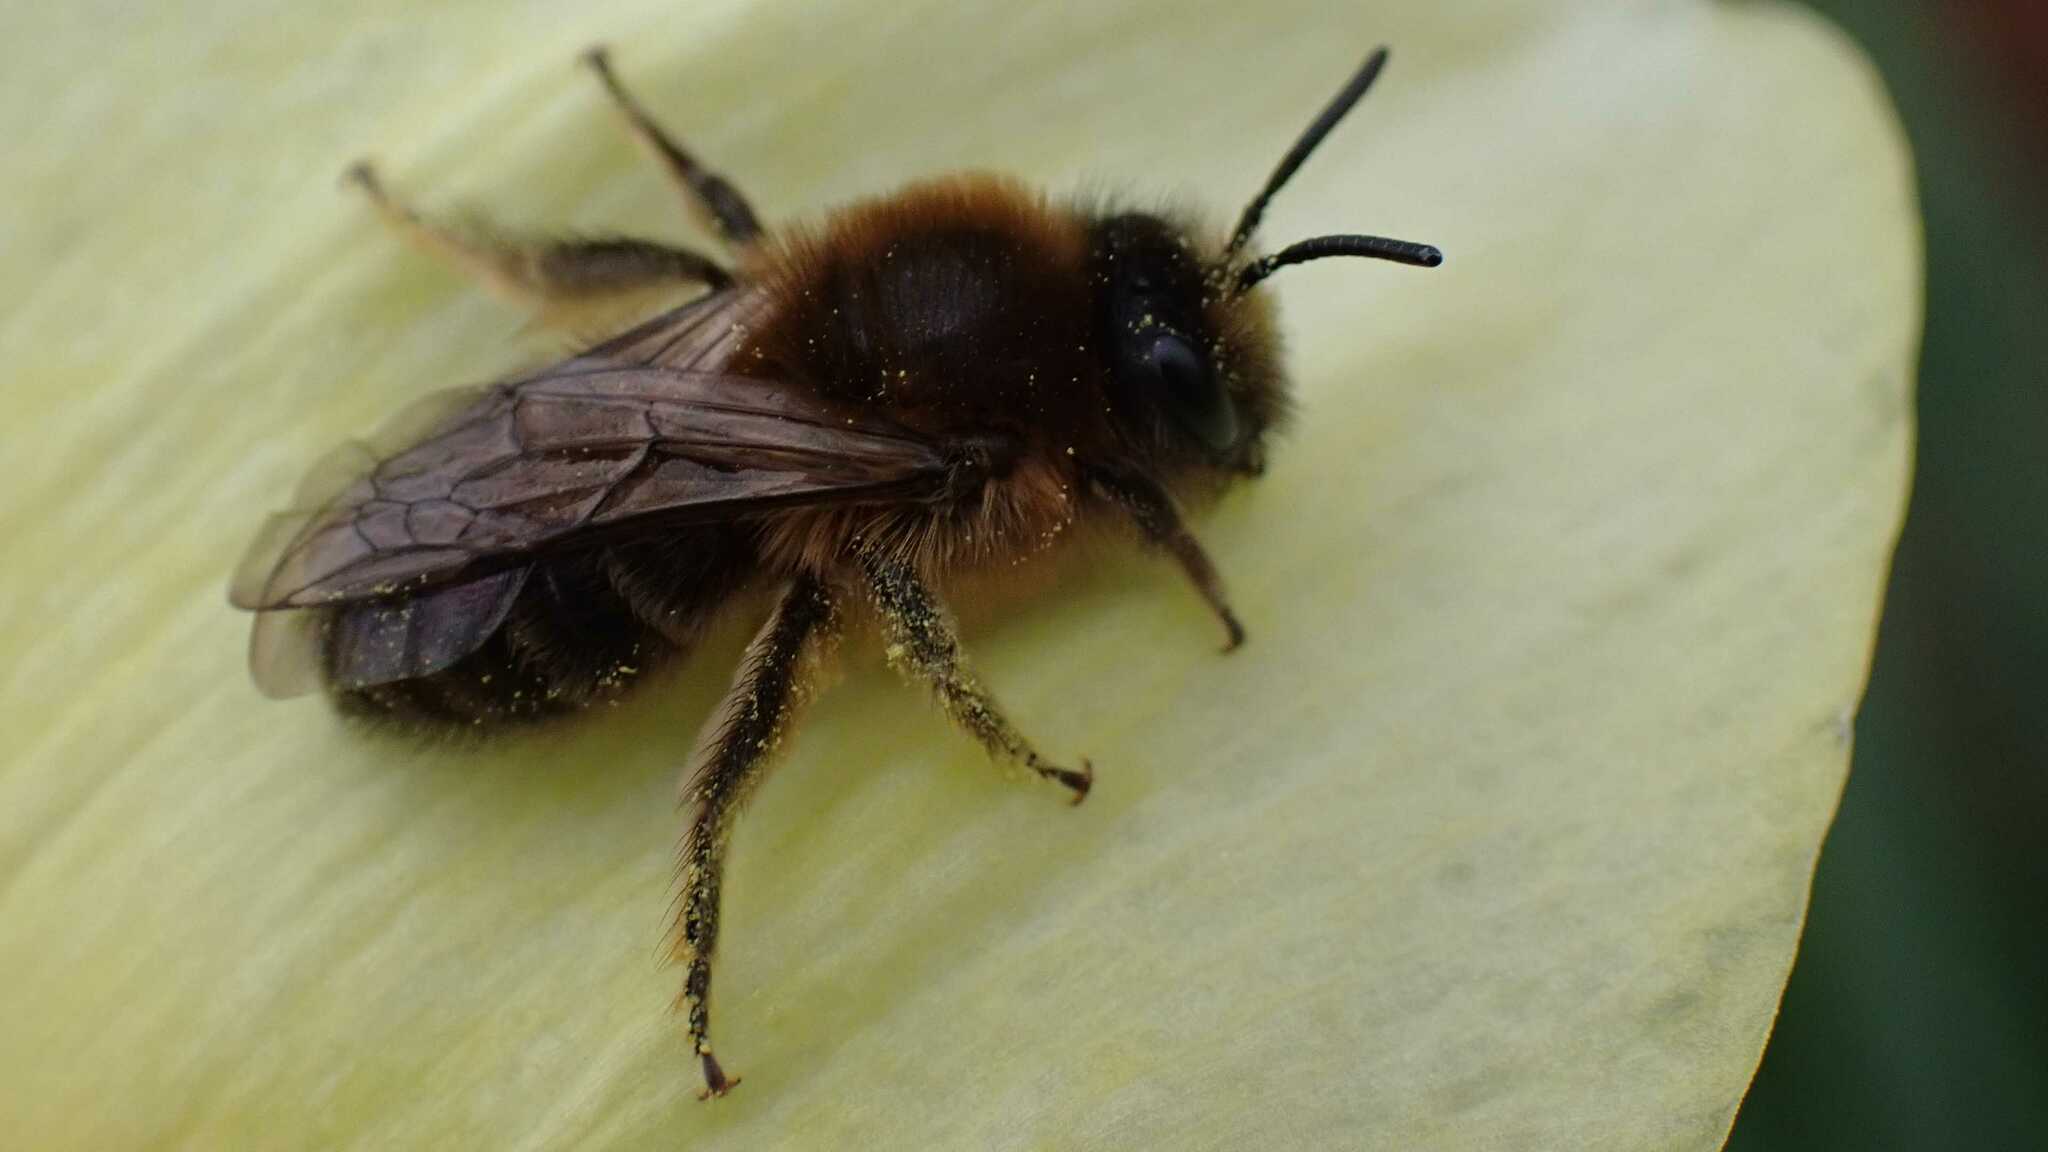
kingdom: Animalia
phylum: Arthropoda
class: Insecta
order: Hymenoptera
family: Colletidae
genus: Colletes
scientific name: Colletes cunicularius
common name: Early colletes
